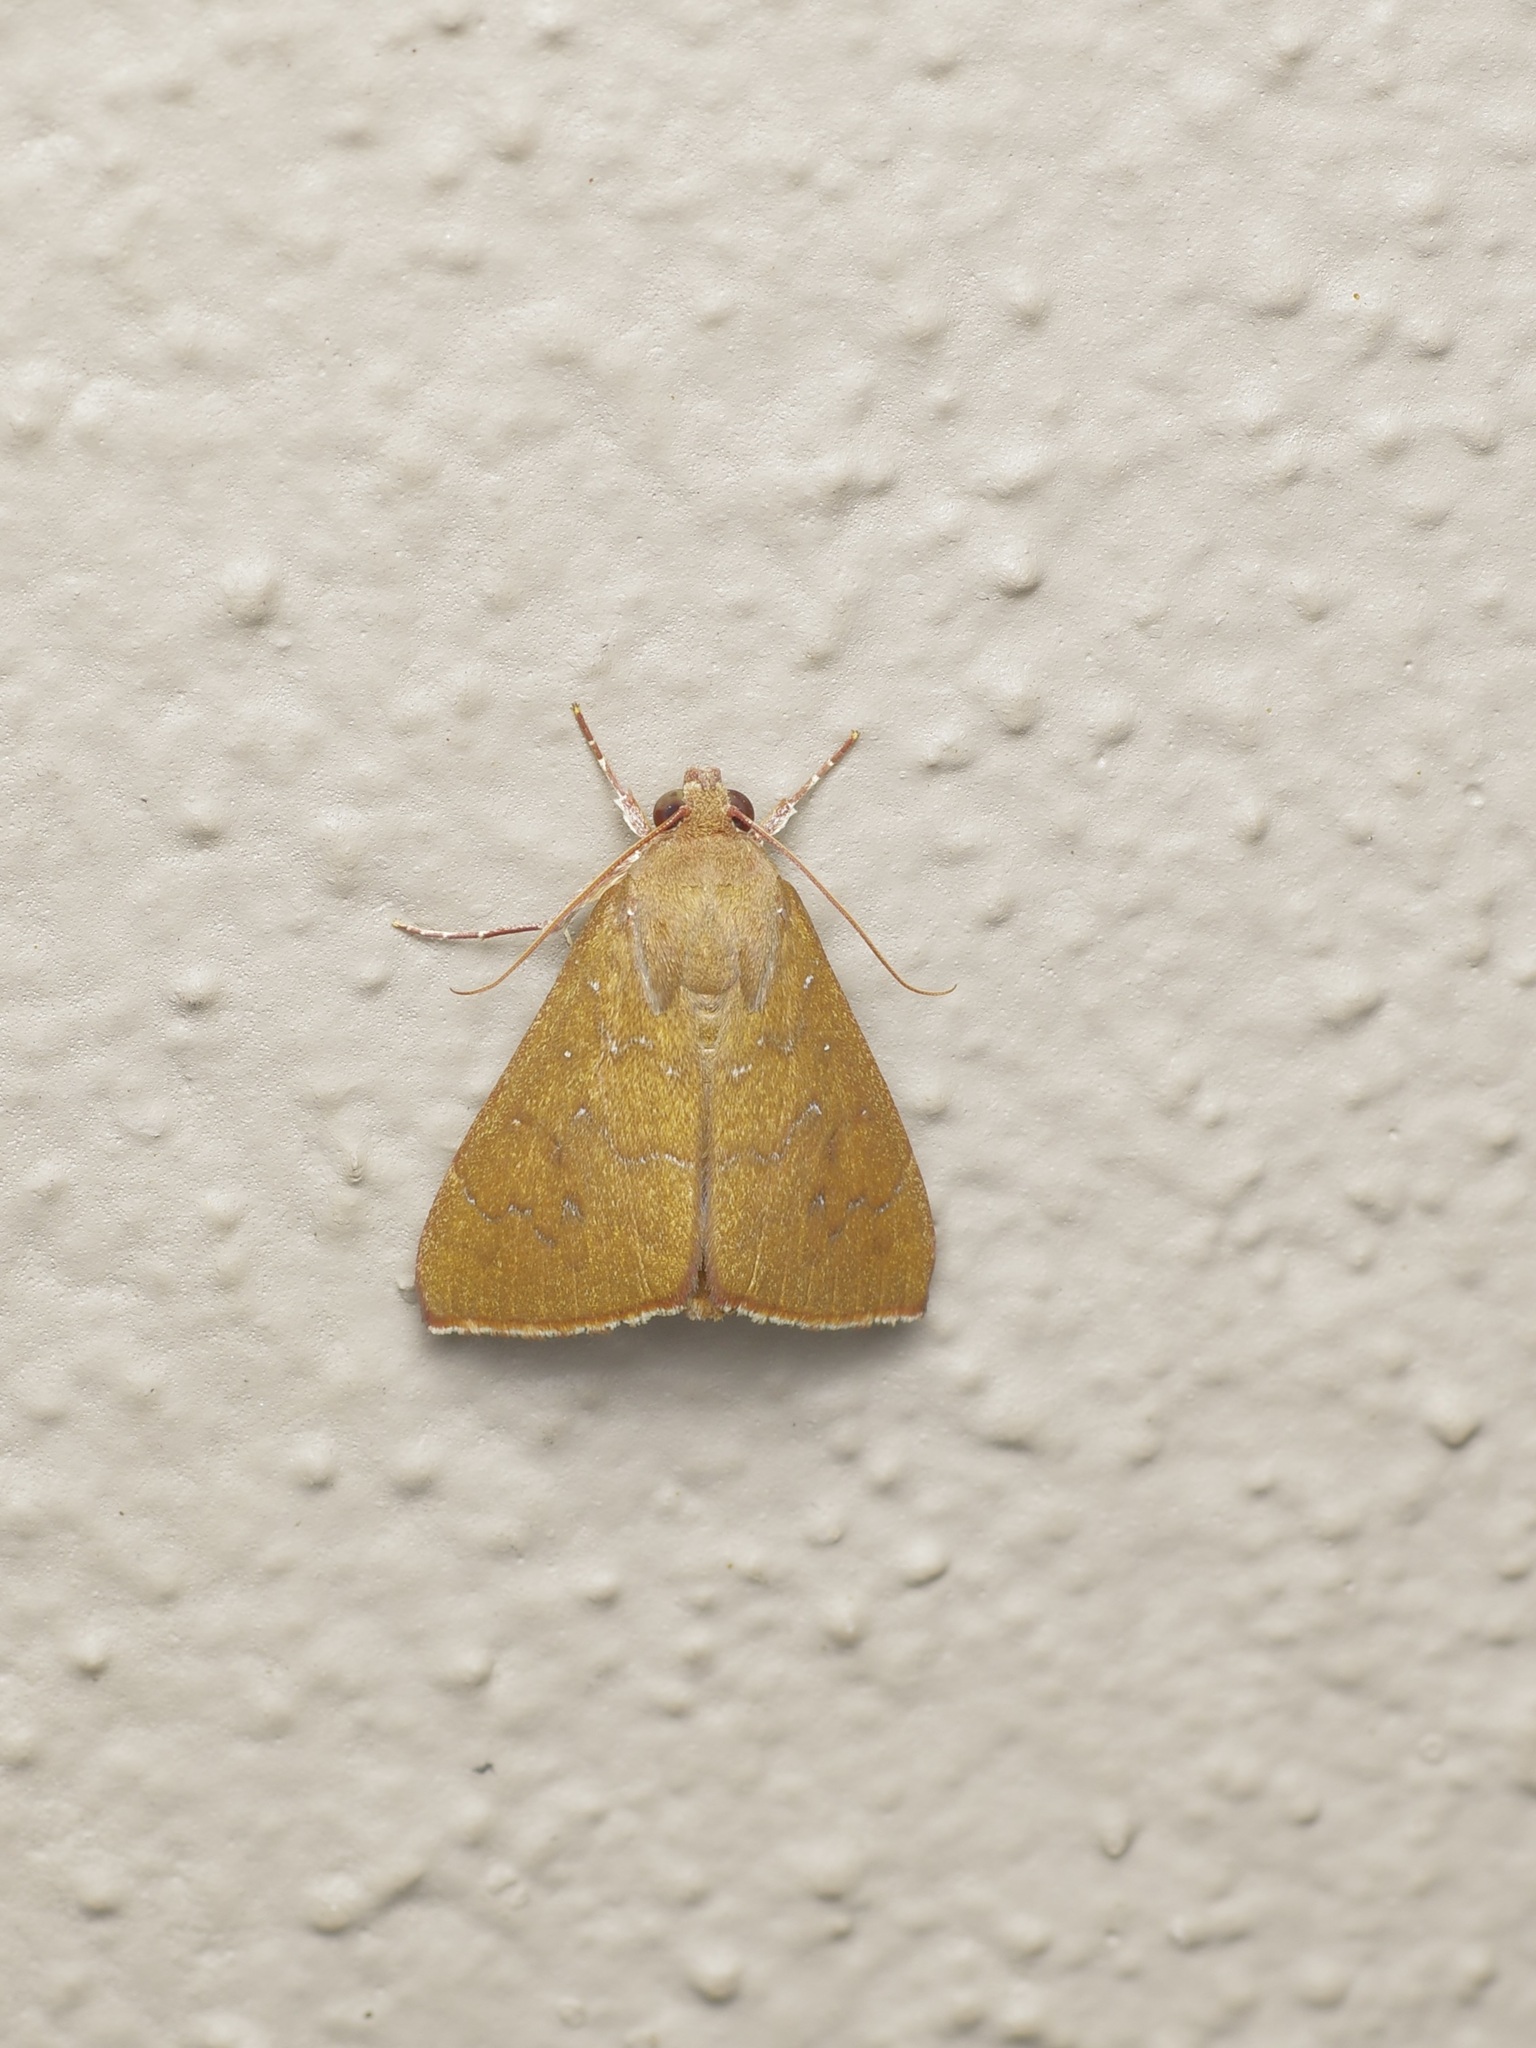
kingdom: Animalia
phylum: Arthropoda
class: Insecta
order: Lepidoptera
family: Erebidae
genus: Anomis
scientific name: Anomis illita
